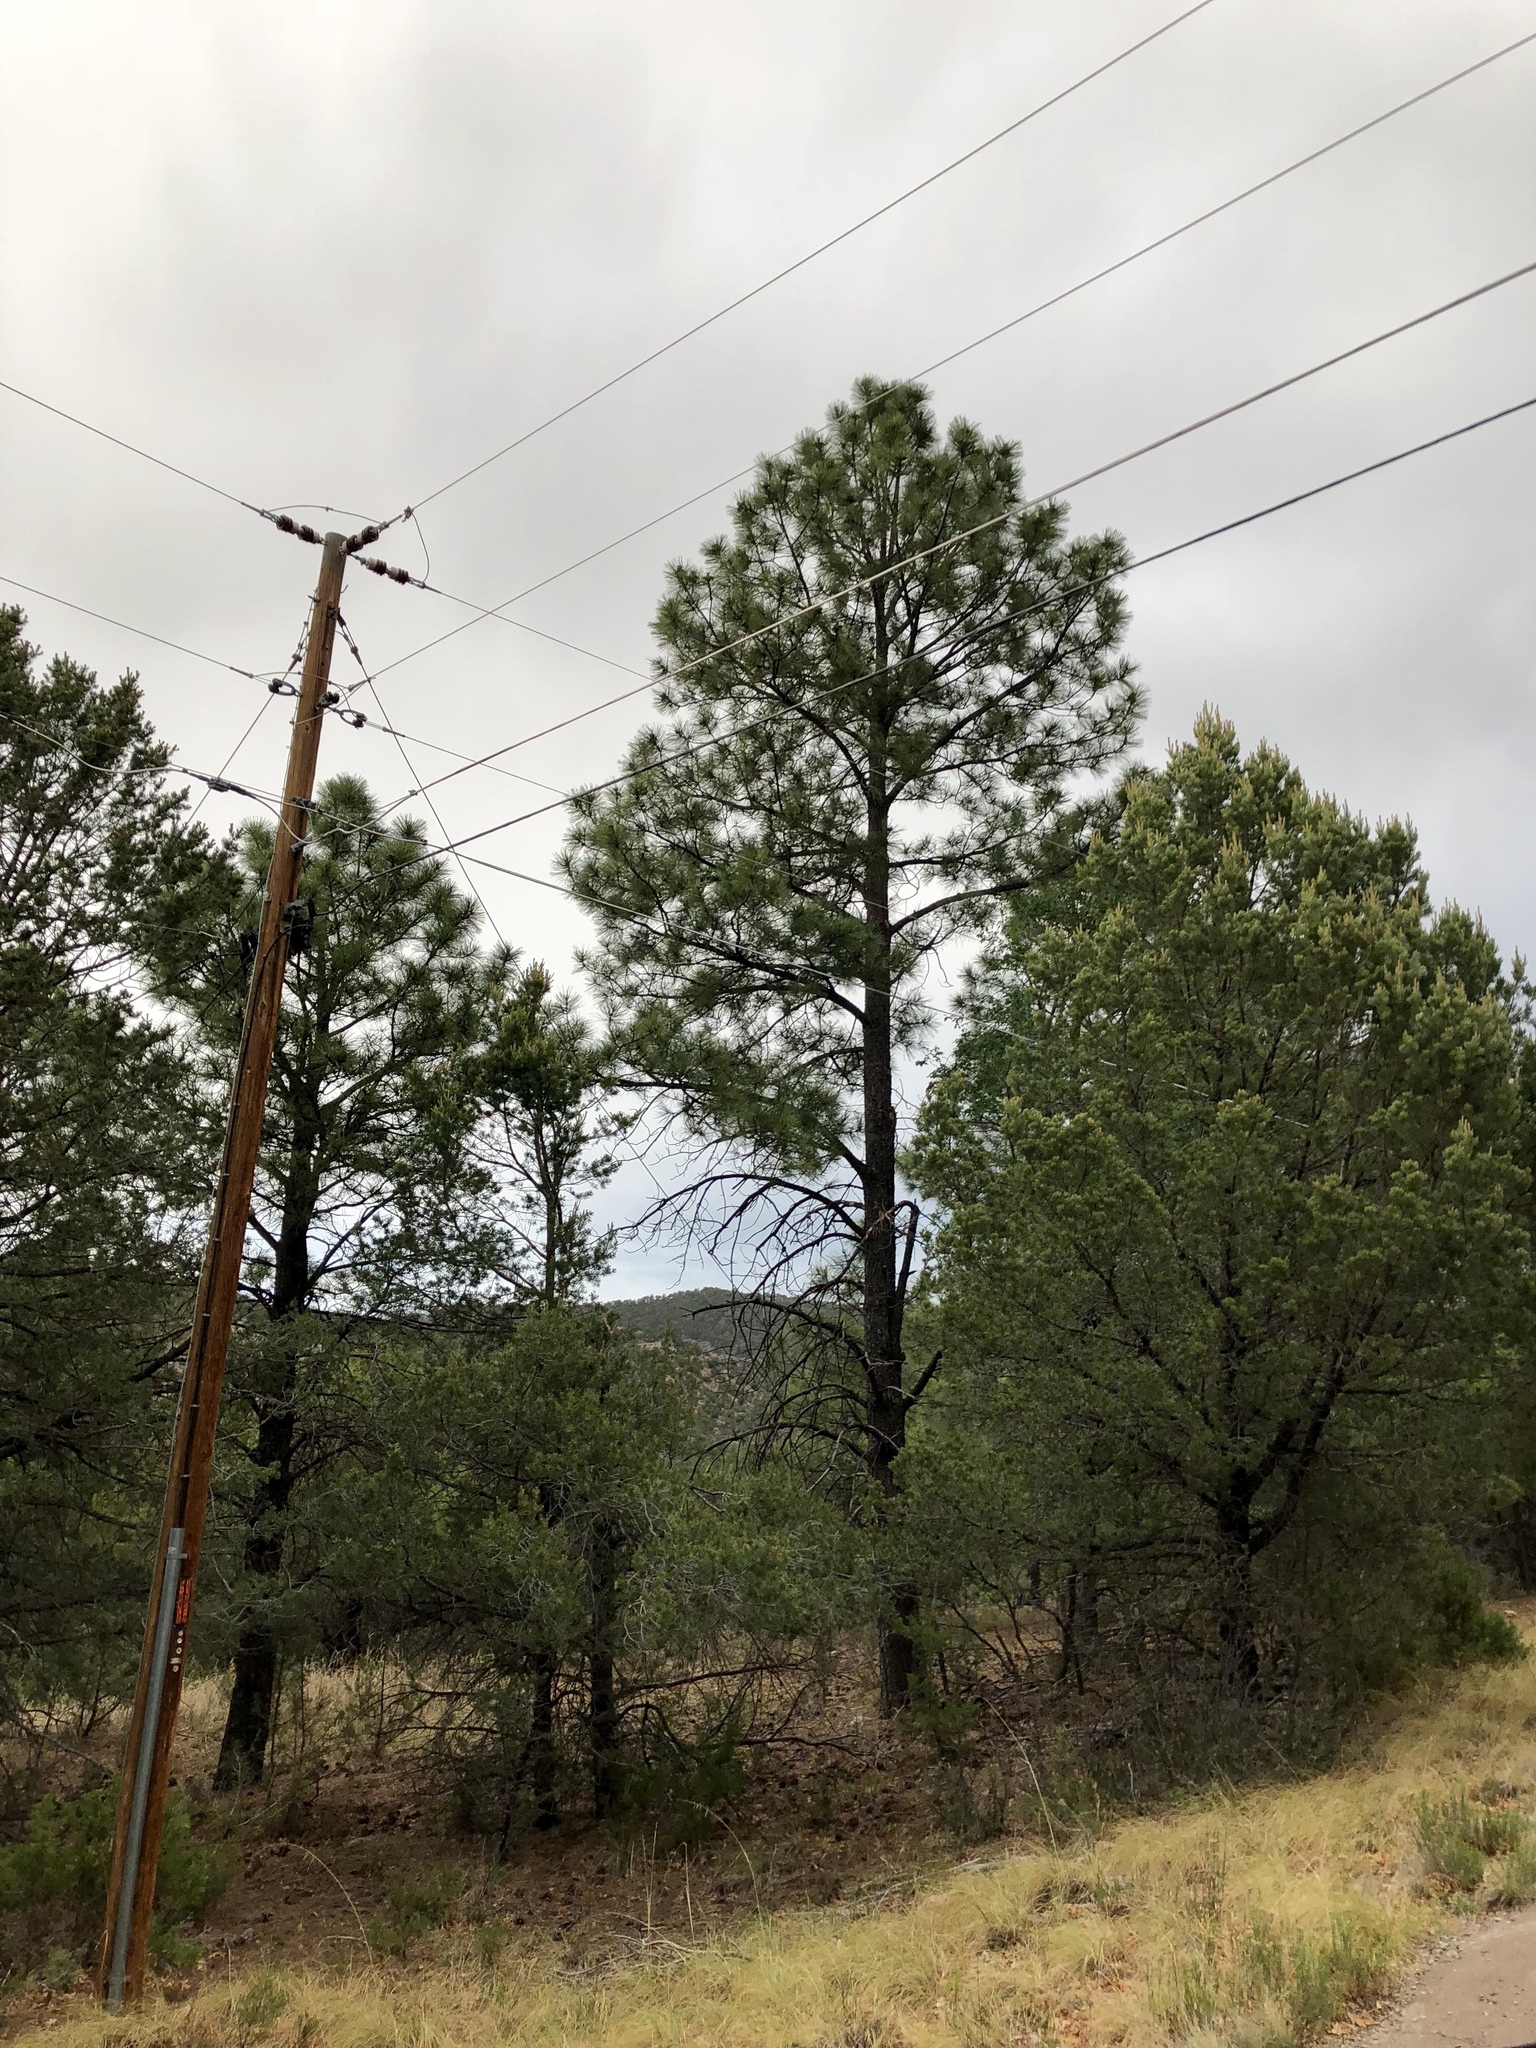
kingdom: Plantae
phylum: Tracheophyta
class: Pinopsida
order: Pinales
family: Pinaceae
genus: Pinus
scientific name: Pinus ponderosa
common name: Western yellow-pine
